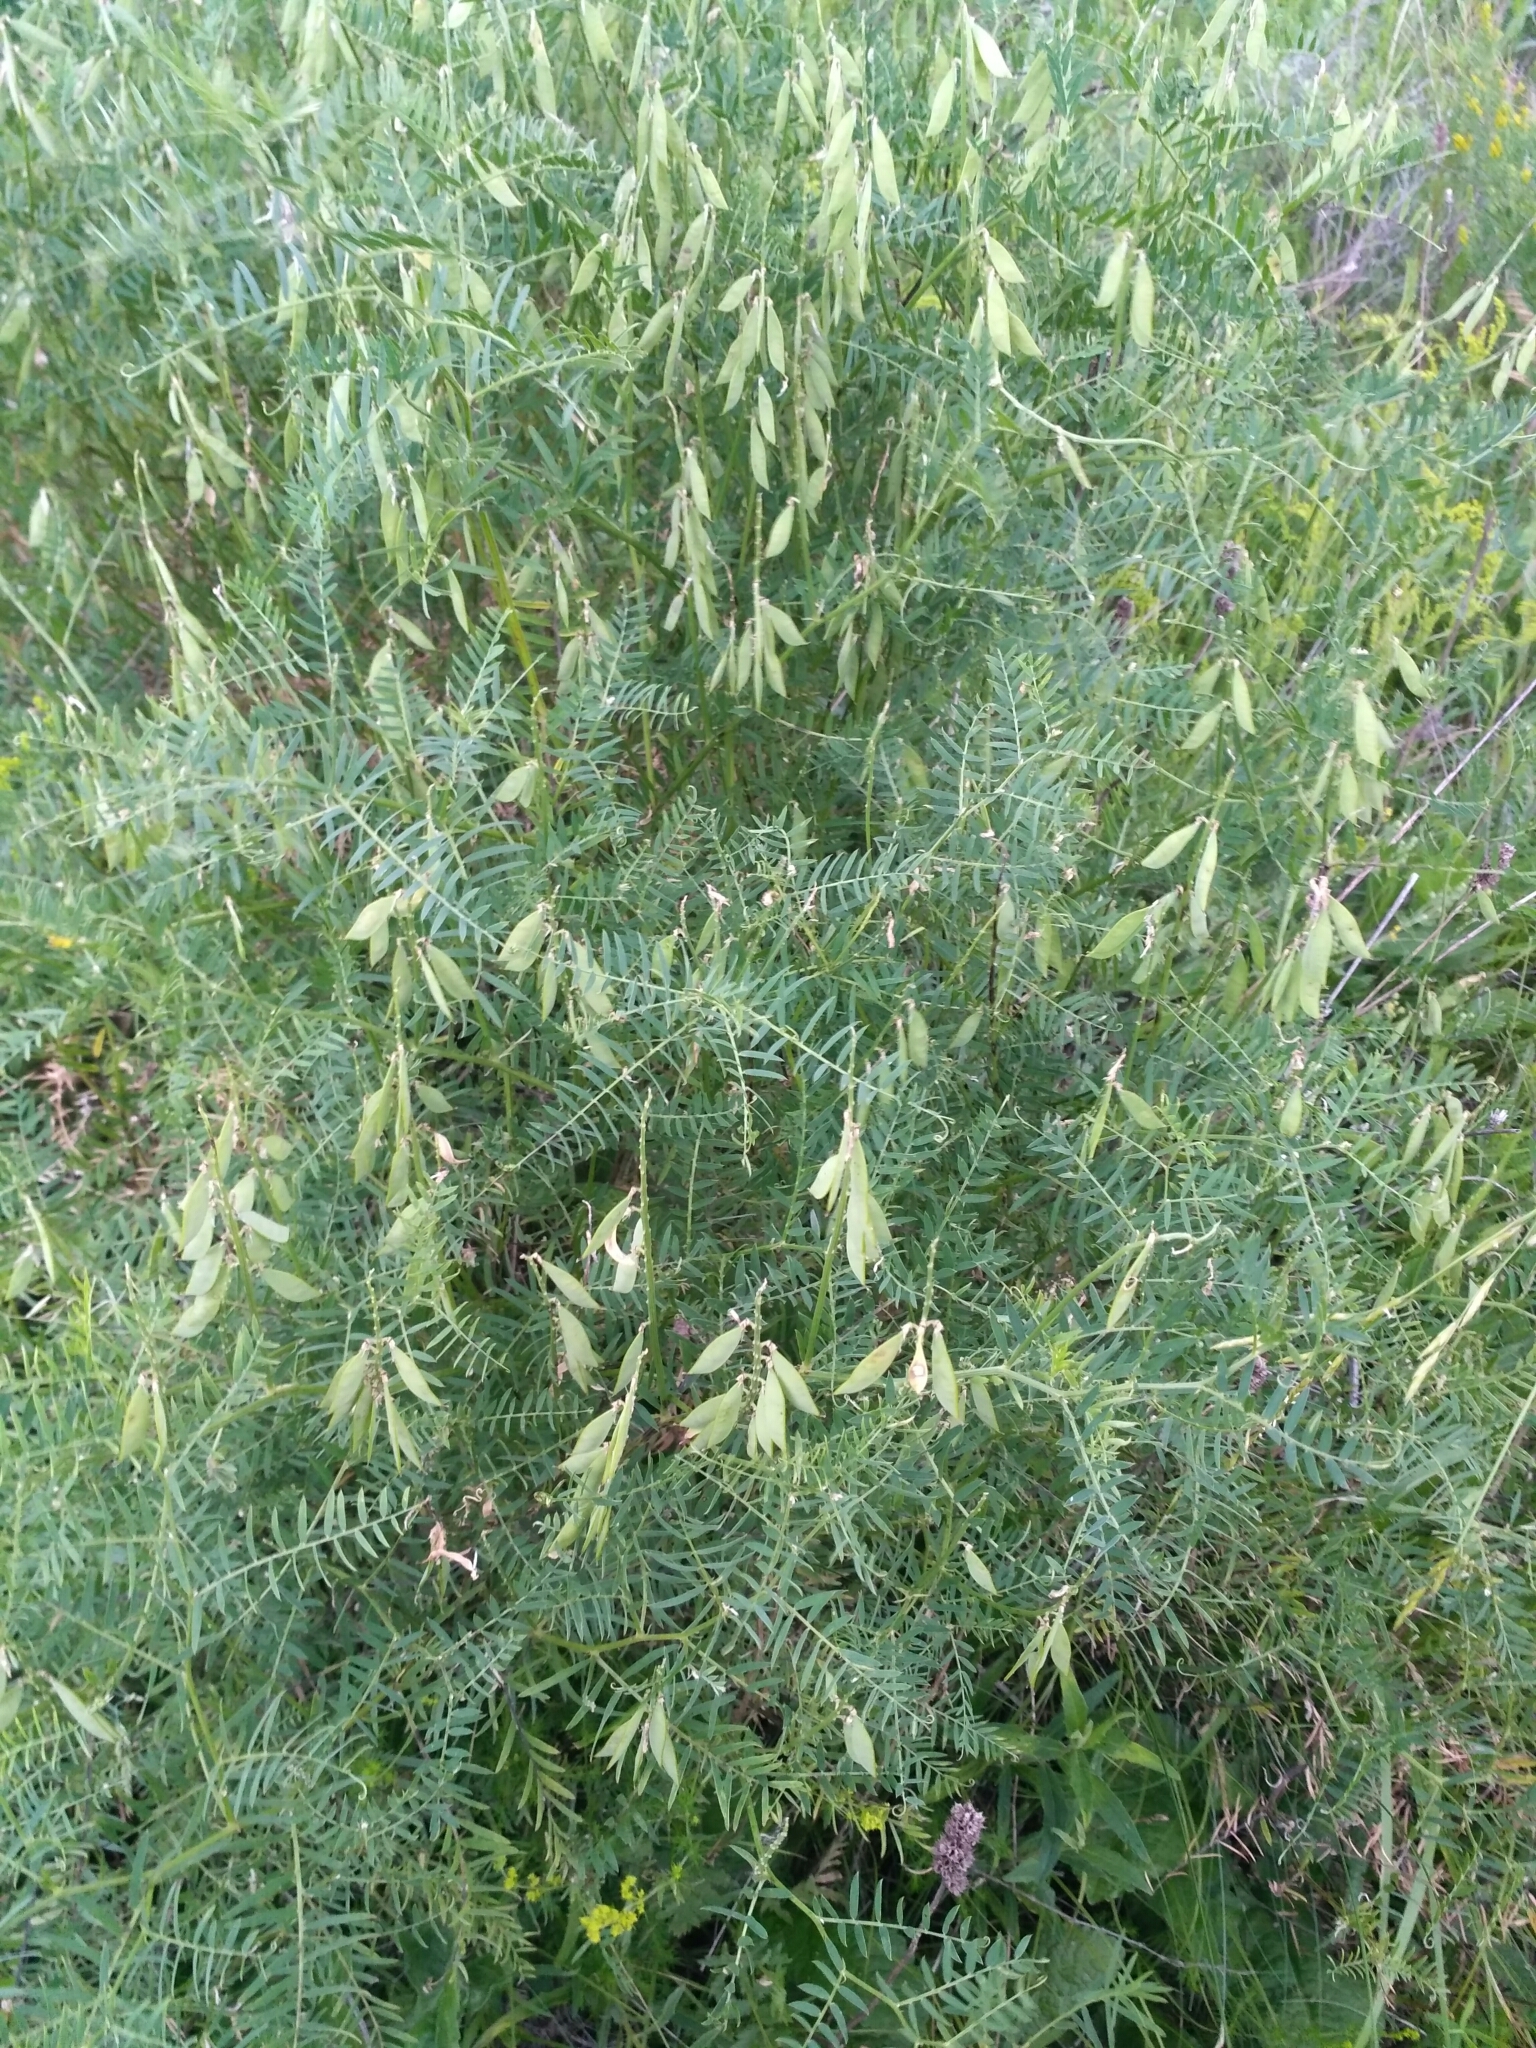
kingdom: Plantae
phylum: Tracheophyta
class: Magnoliopsida
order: Fabales
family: Fabaceae
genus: Vicia
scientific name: Vicia tenuifolia
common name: Fine-leaved vetch
